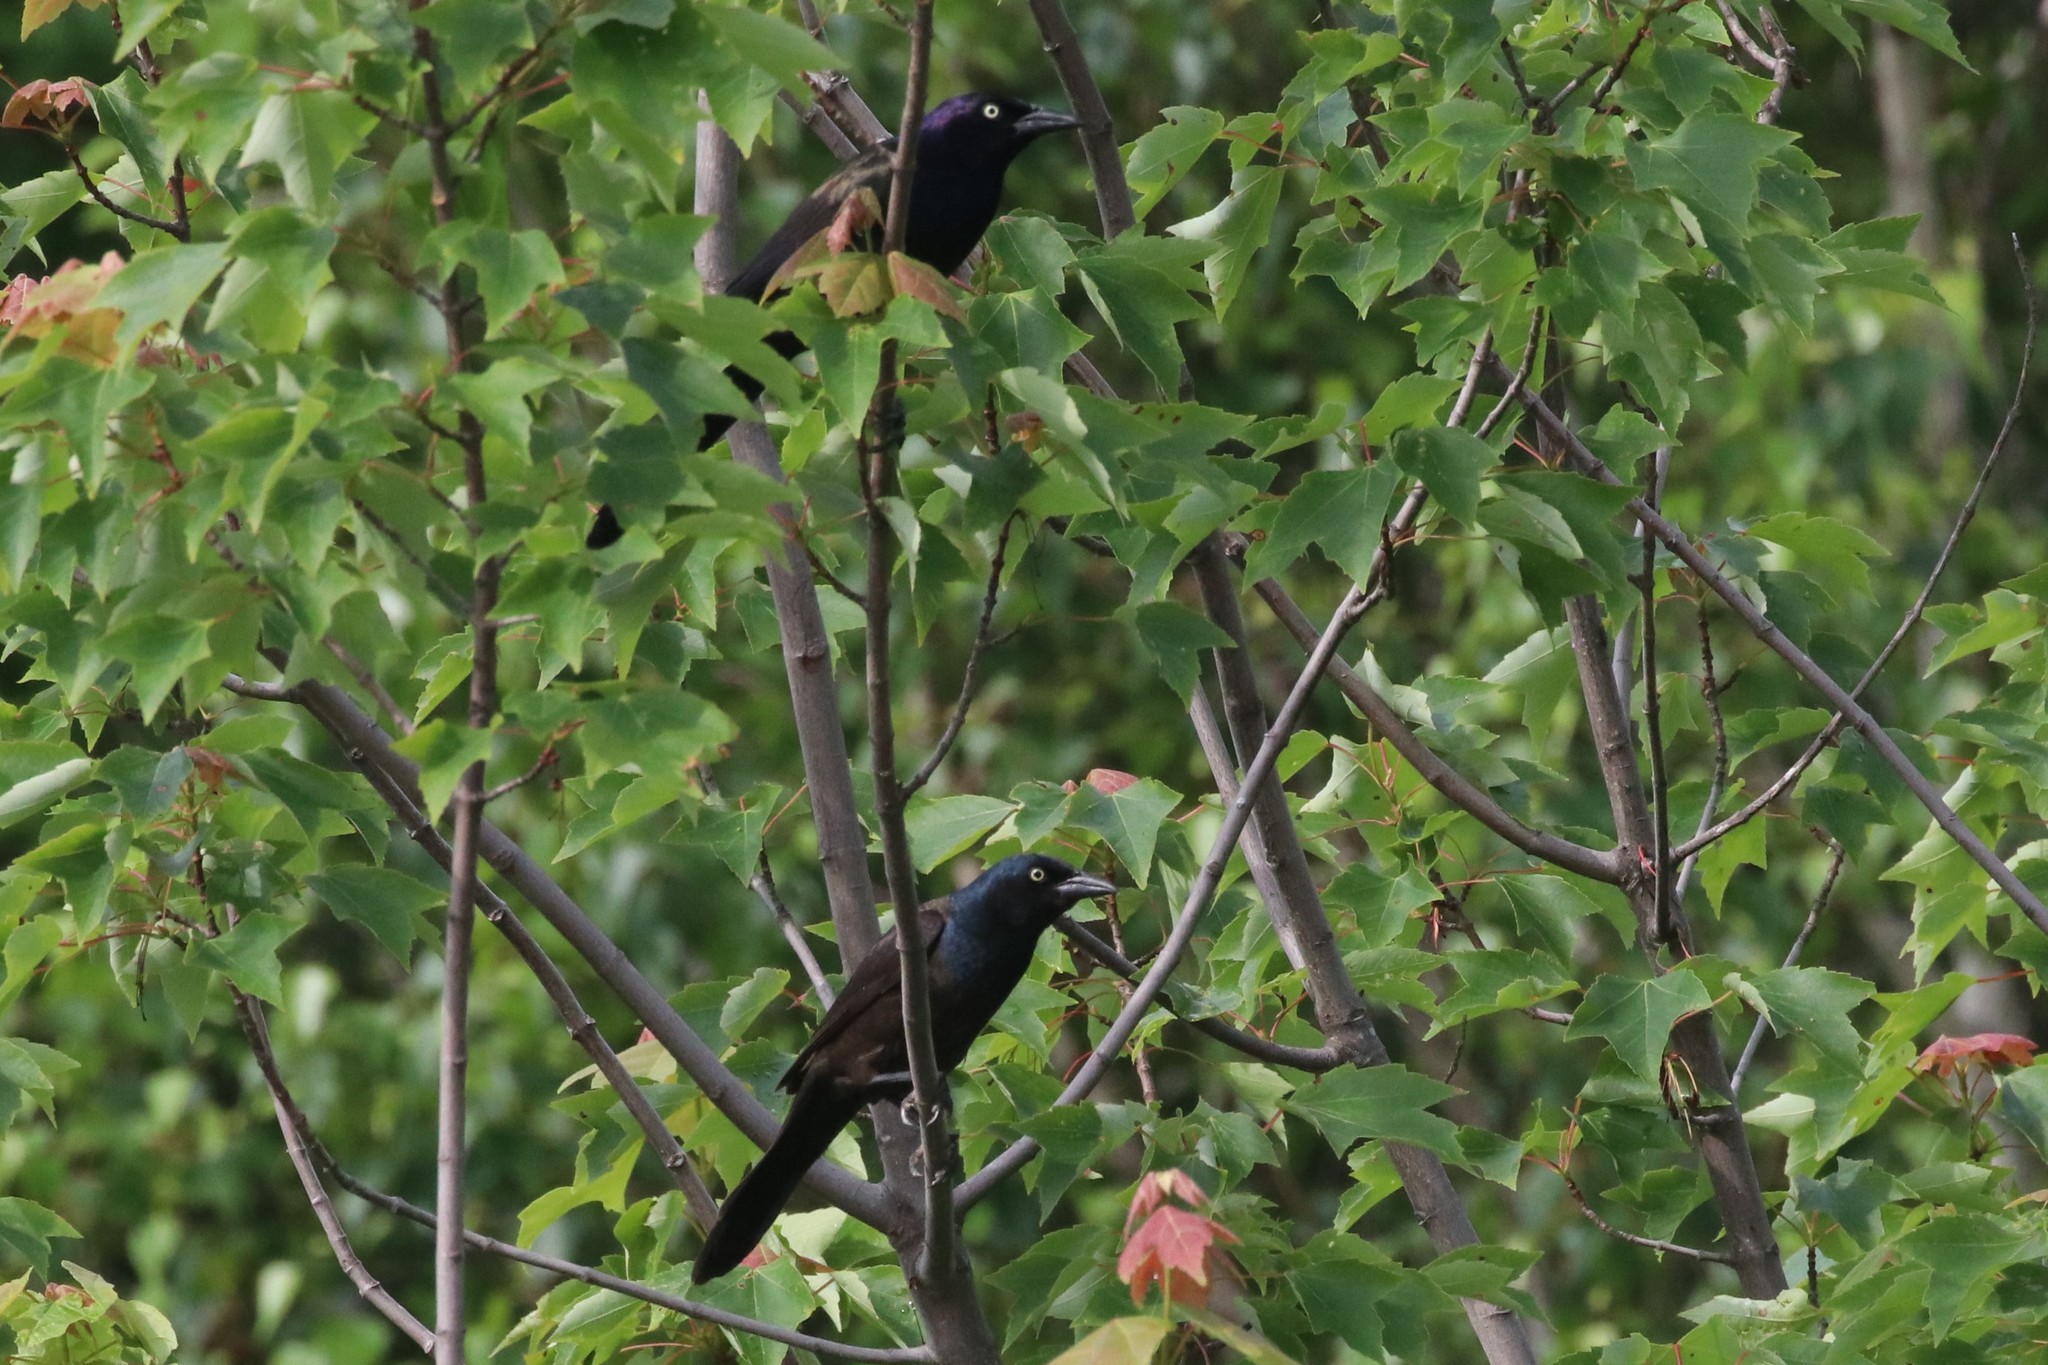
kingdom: Animalia
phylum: Chordata
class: Aves
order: Passeriformes
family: Icteridae
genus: Quiscalus
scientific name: Quiscalus quiscula
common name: Common grackle
